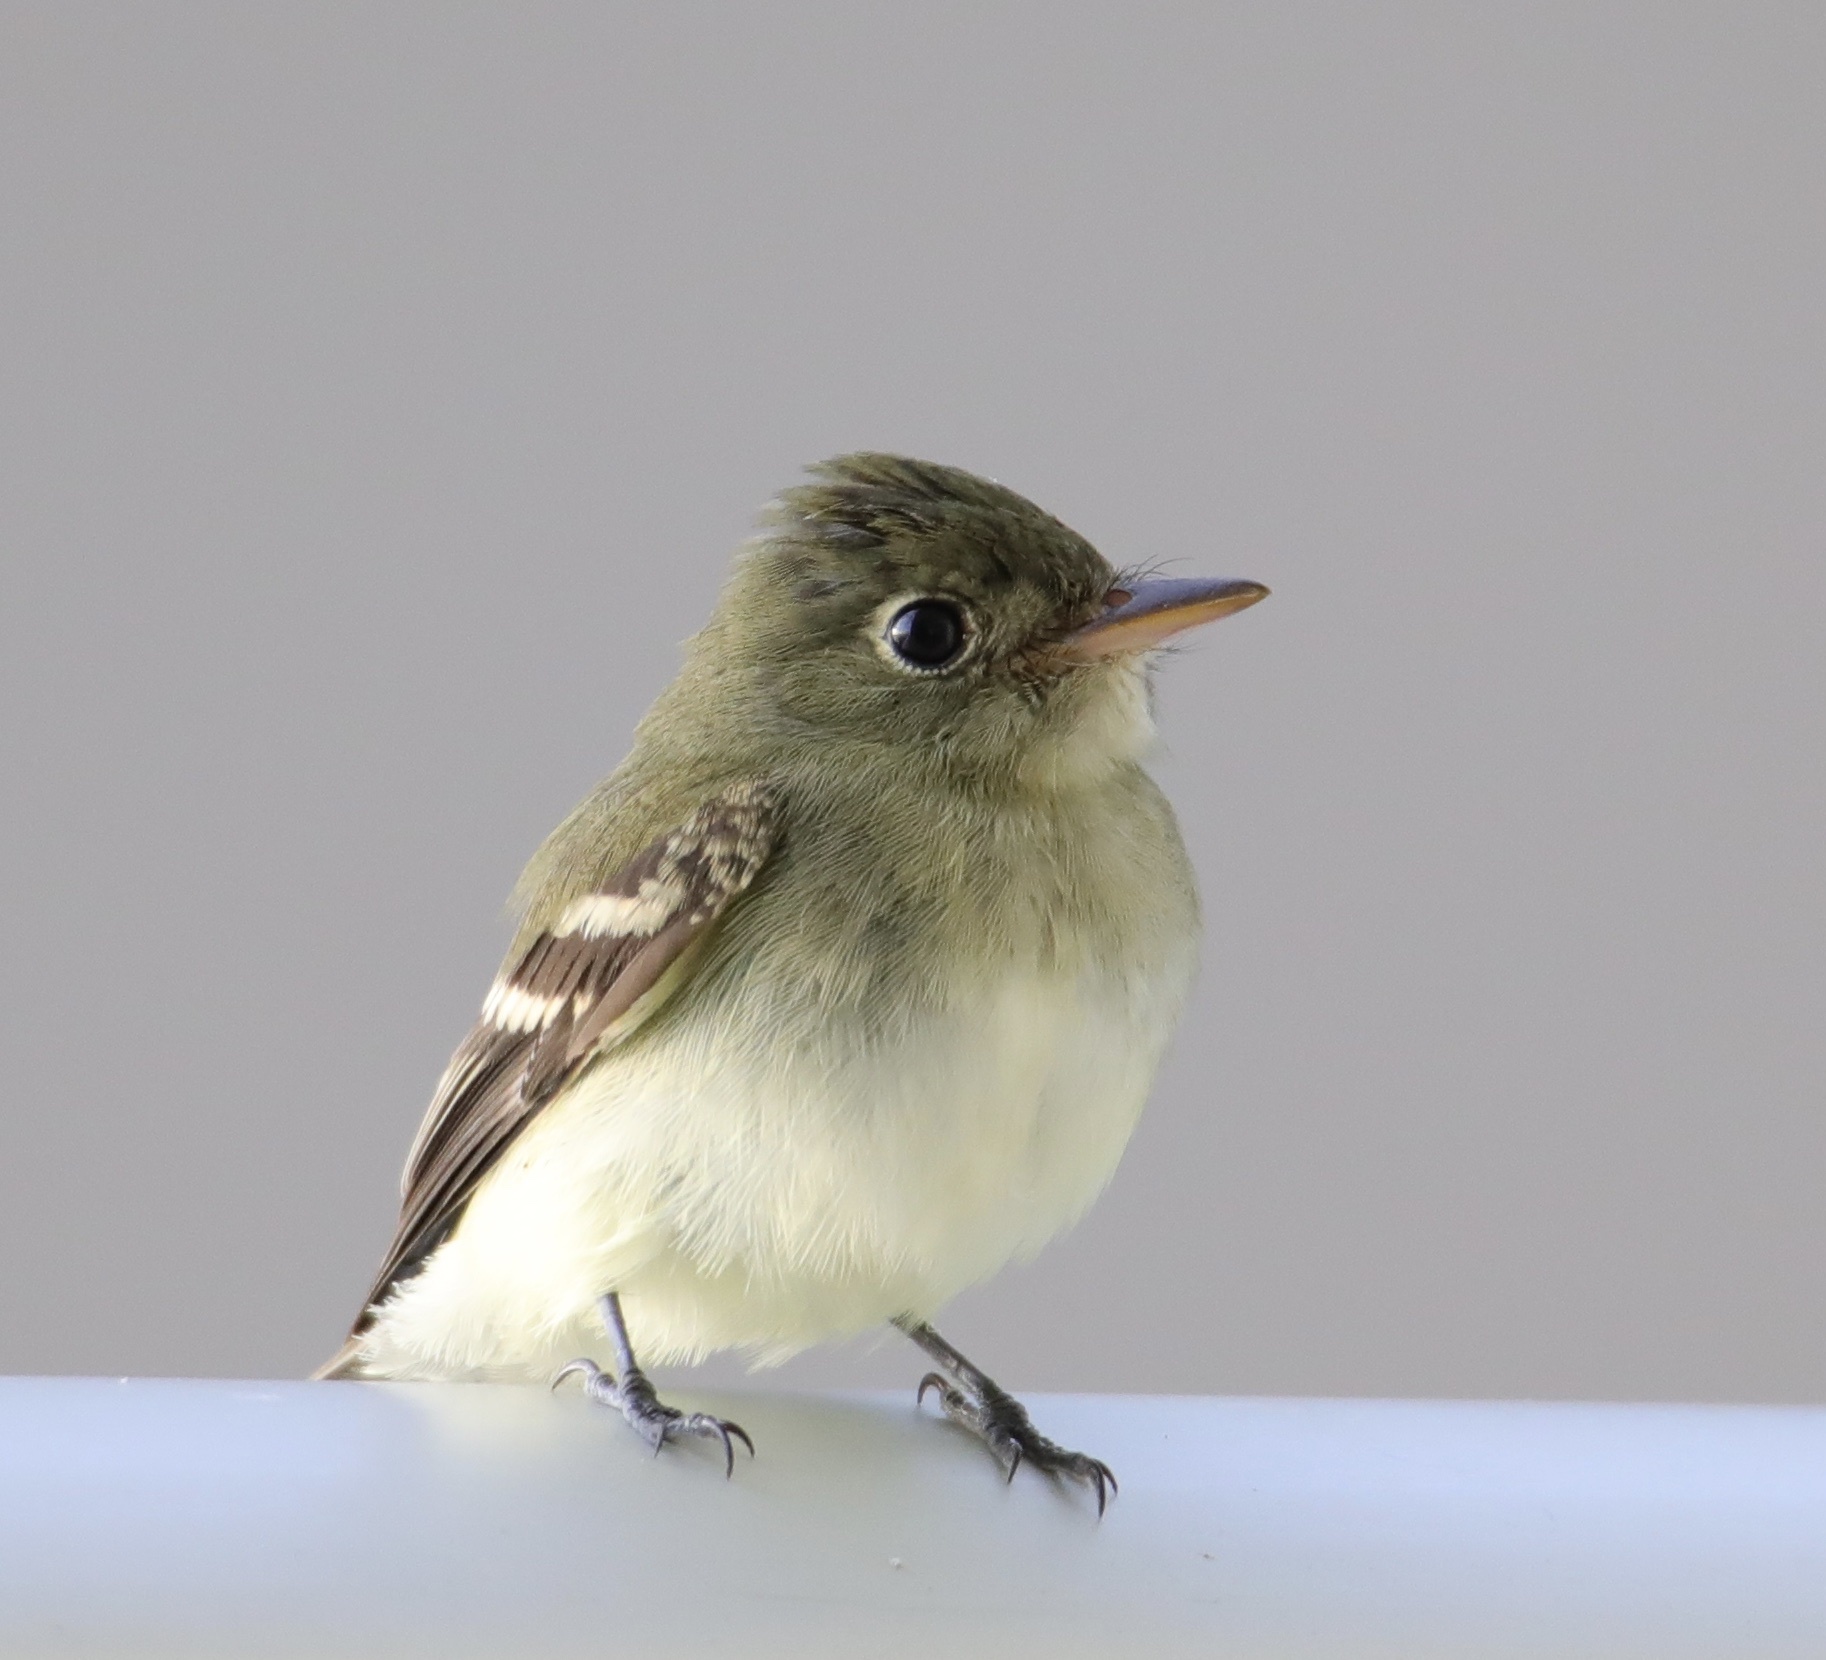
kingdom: Animalia
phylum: Chordata
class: Aves
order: Passeriformes
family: Tyrannidae
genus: Empidonax
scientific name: Empidonax flaviventris
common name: Yellow-bellied flycatcher
